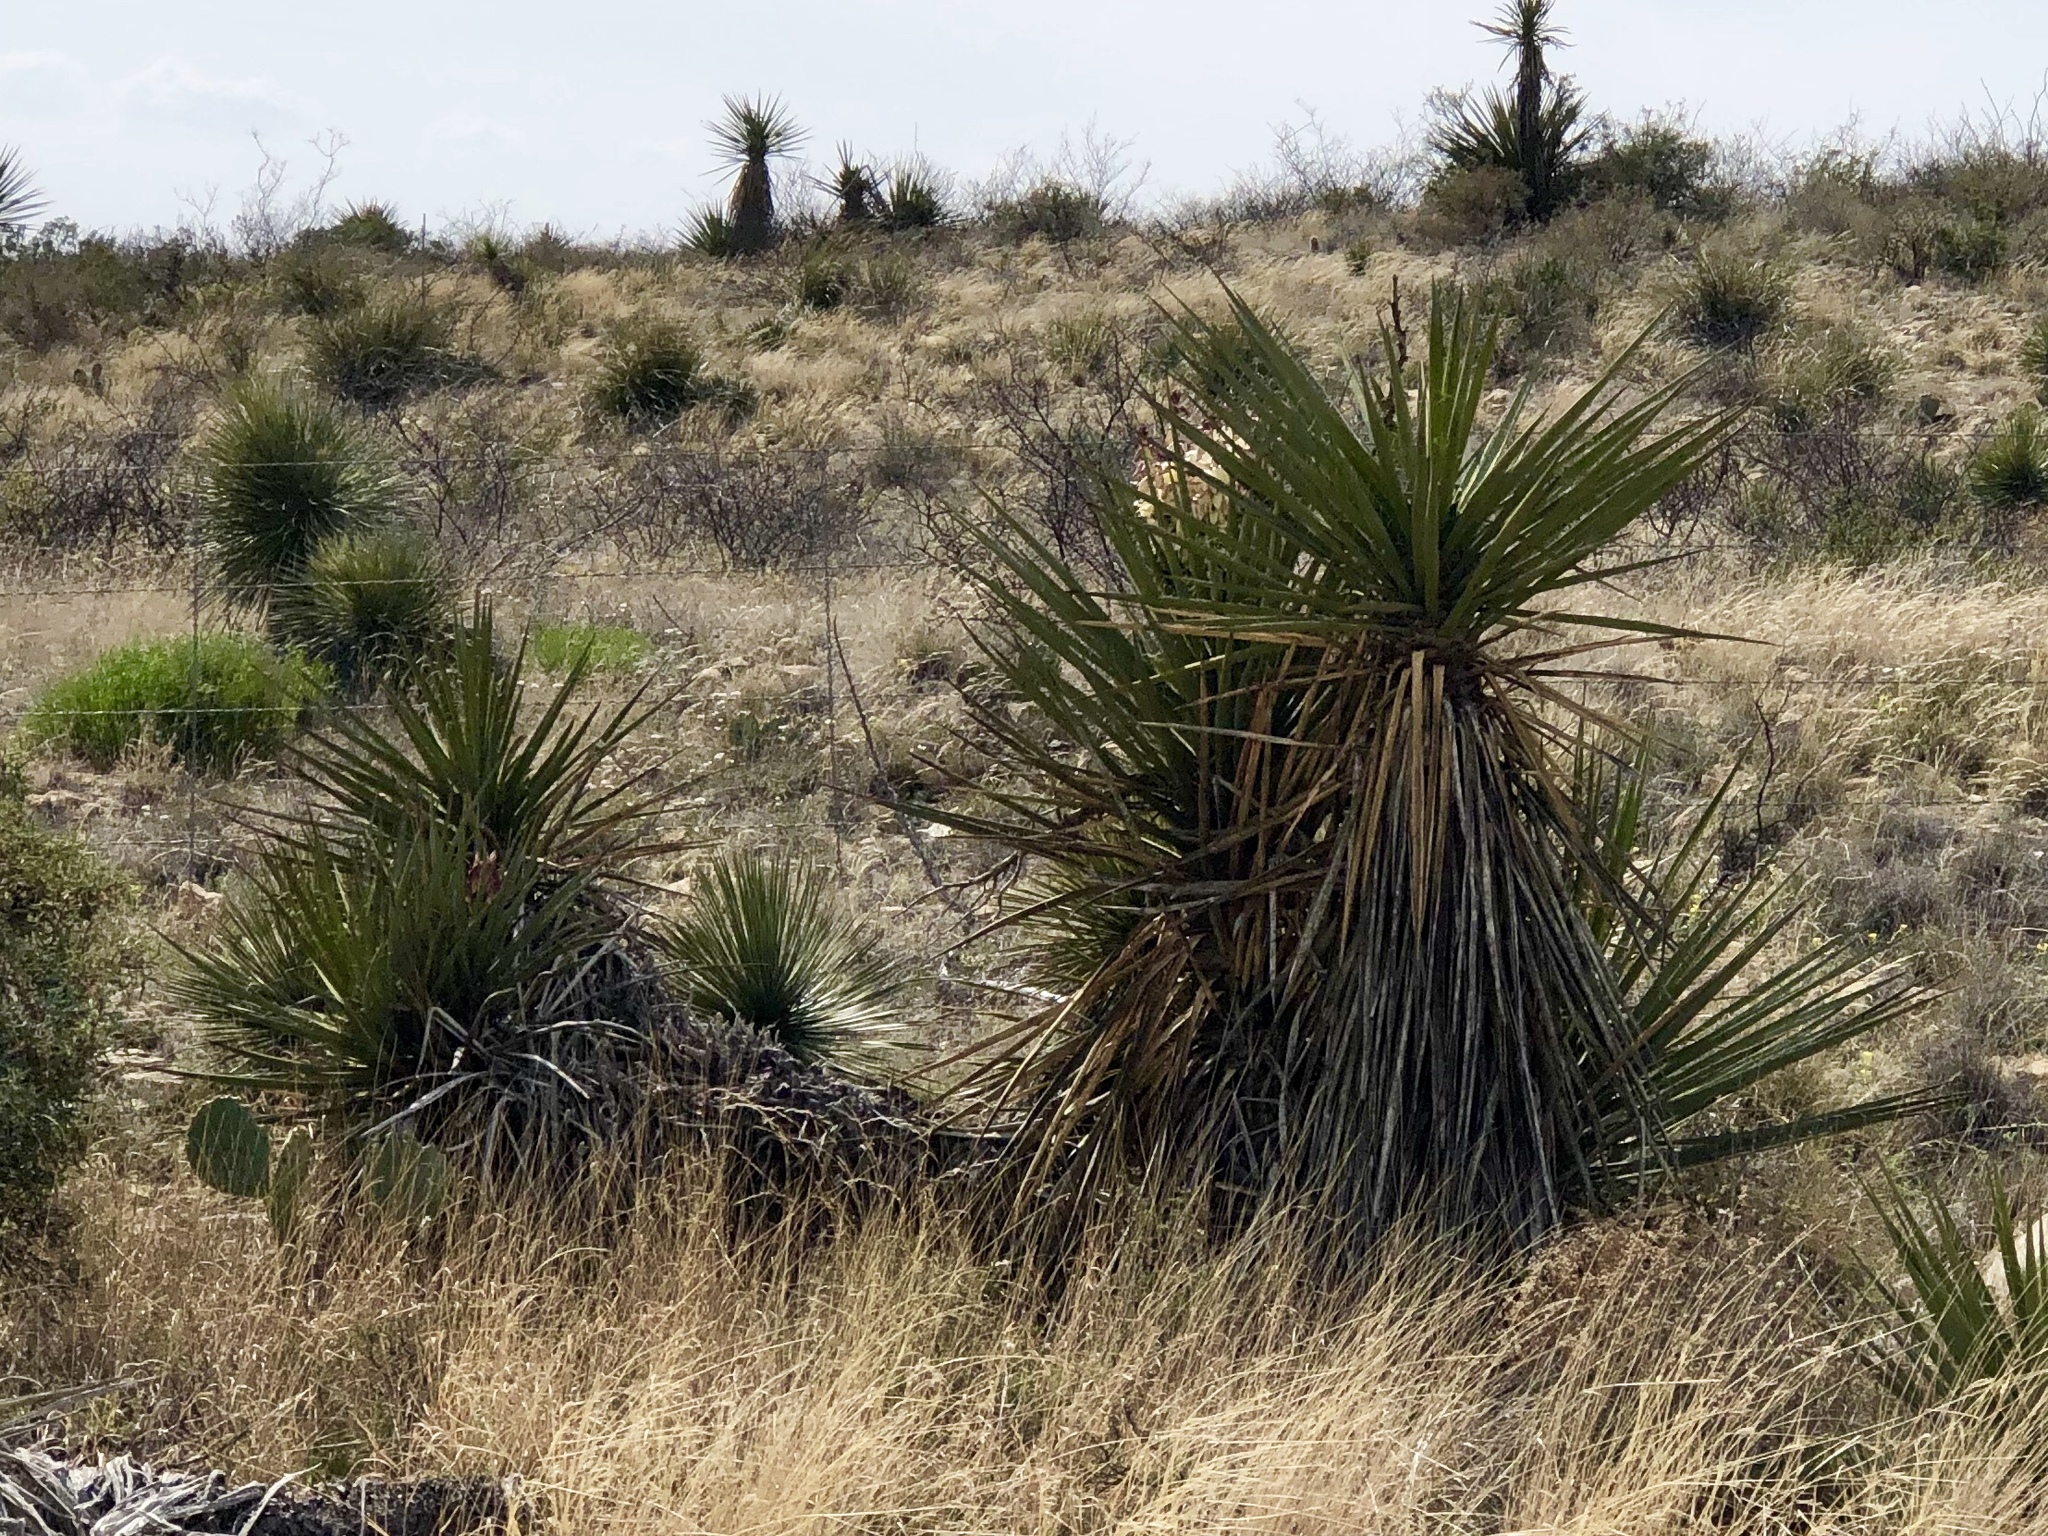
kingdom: Plantae
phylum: Tracheophyta
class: Liliopsida
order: Asparagales
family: Asparagaceae
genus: Yucca
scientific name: Yucca treculiana
